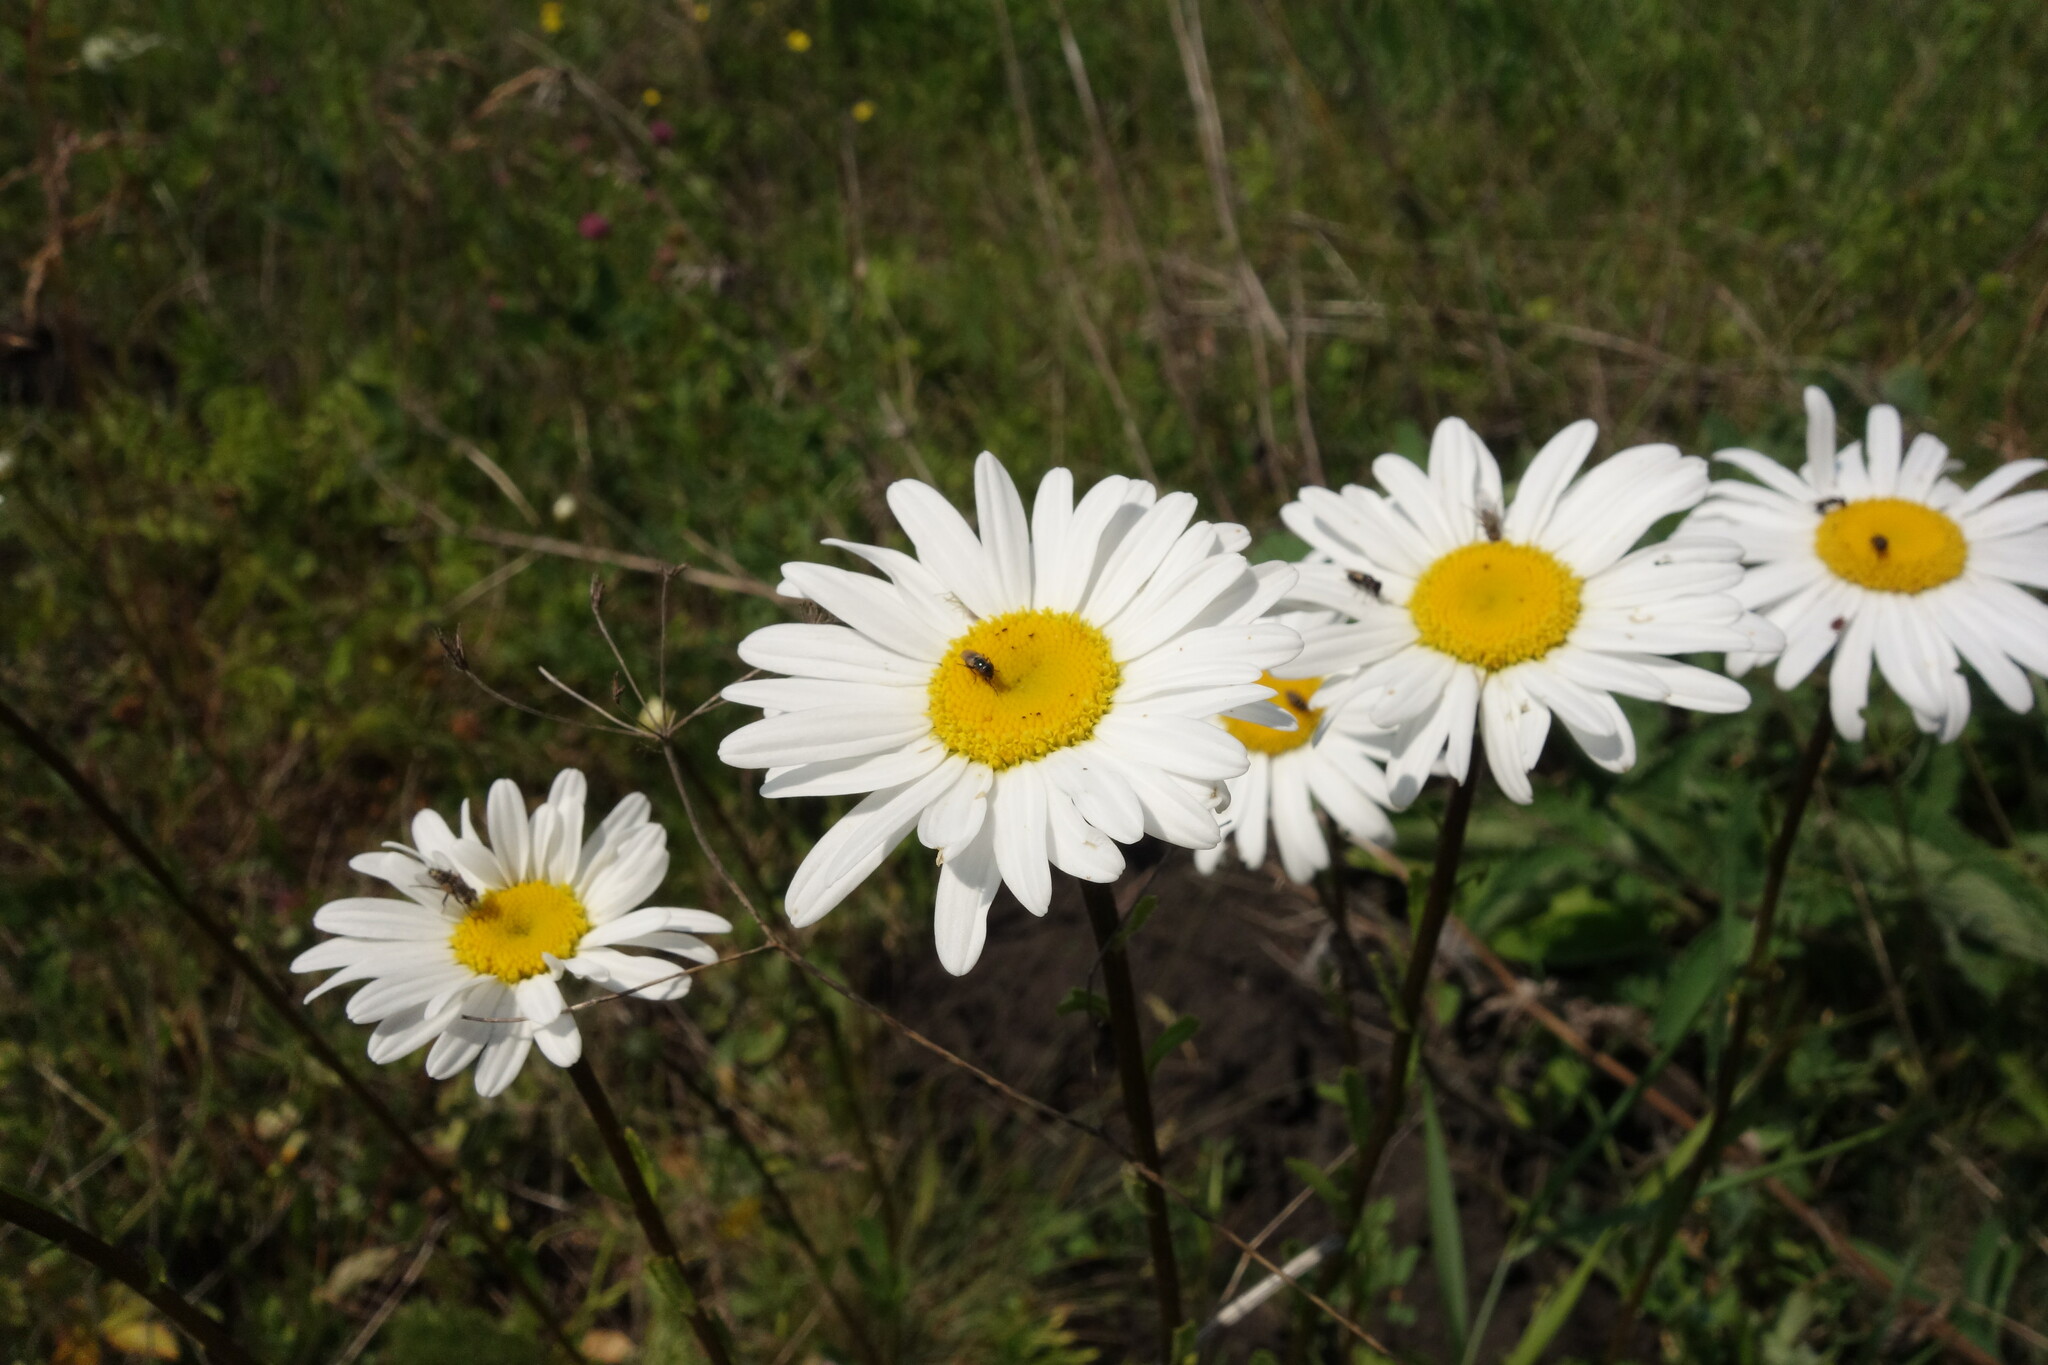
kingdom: Plantae
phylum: Tracheophyta
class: Magnoliopsida
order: Asterales
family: Asteraceae
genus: Leucanthemum
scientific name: Leucanthemum vulgare
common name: Oxeye daisy
